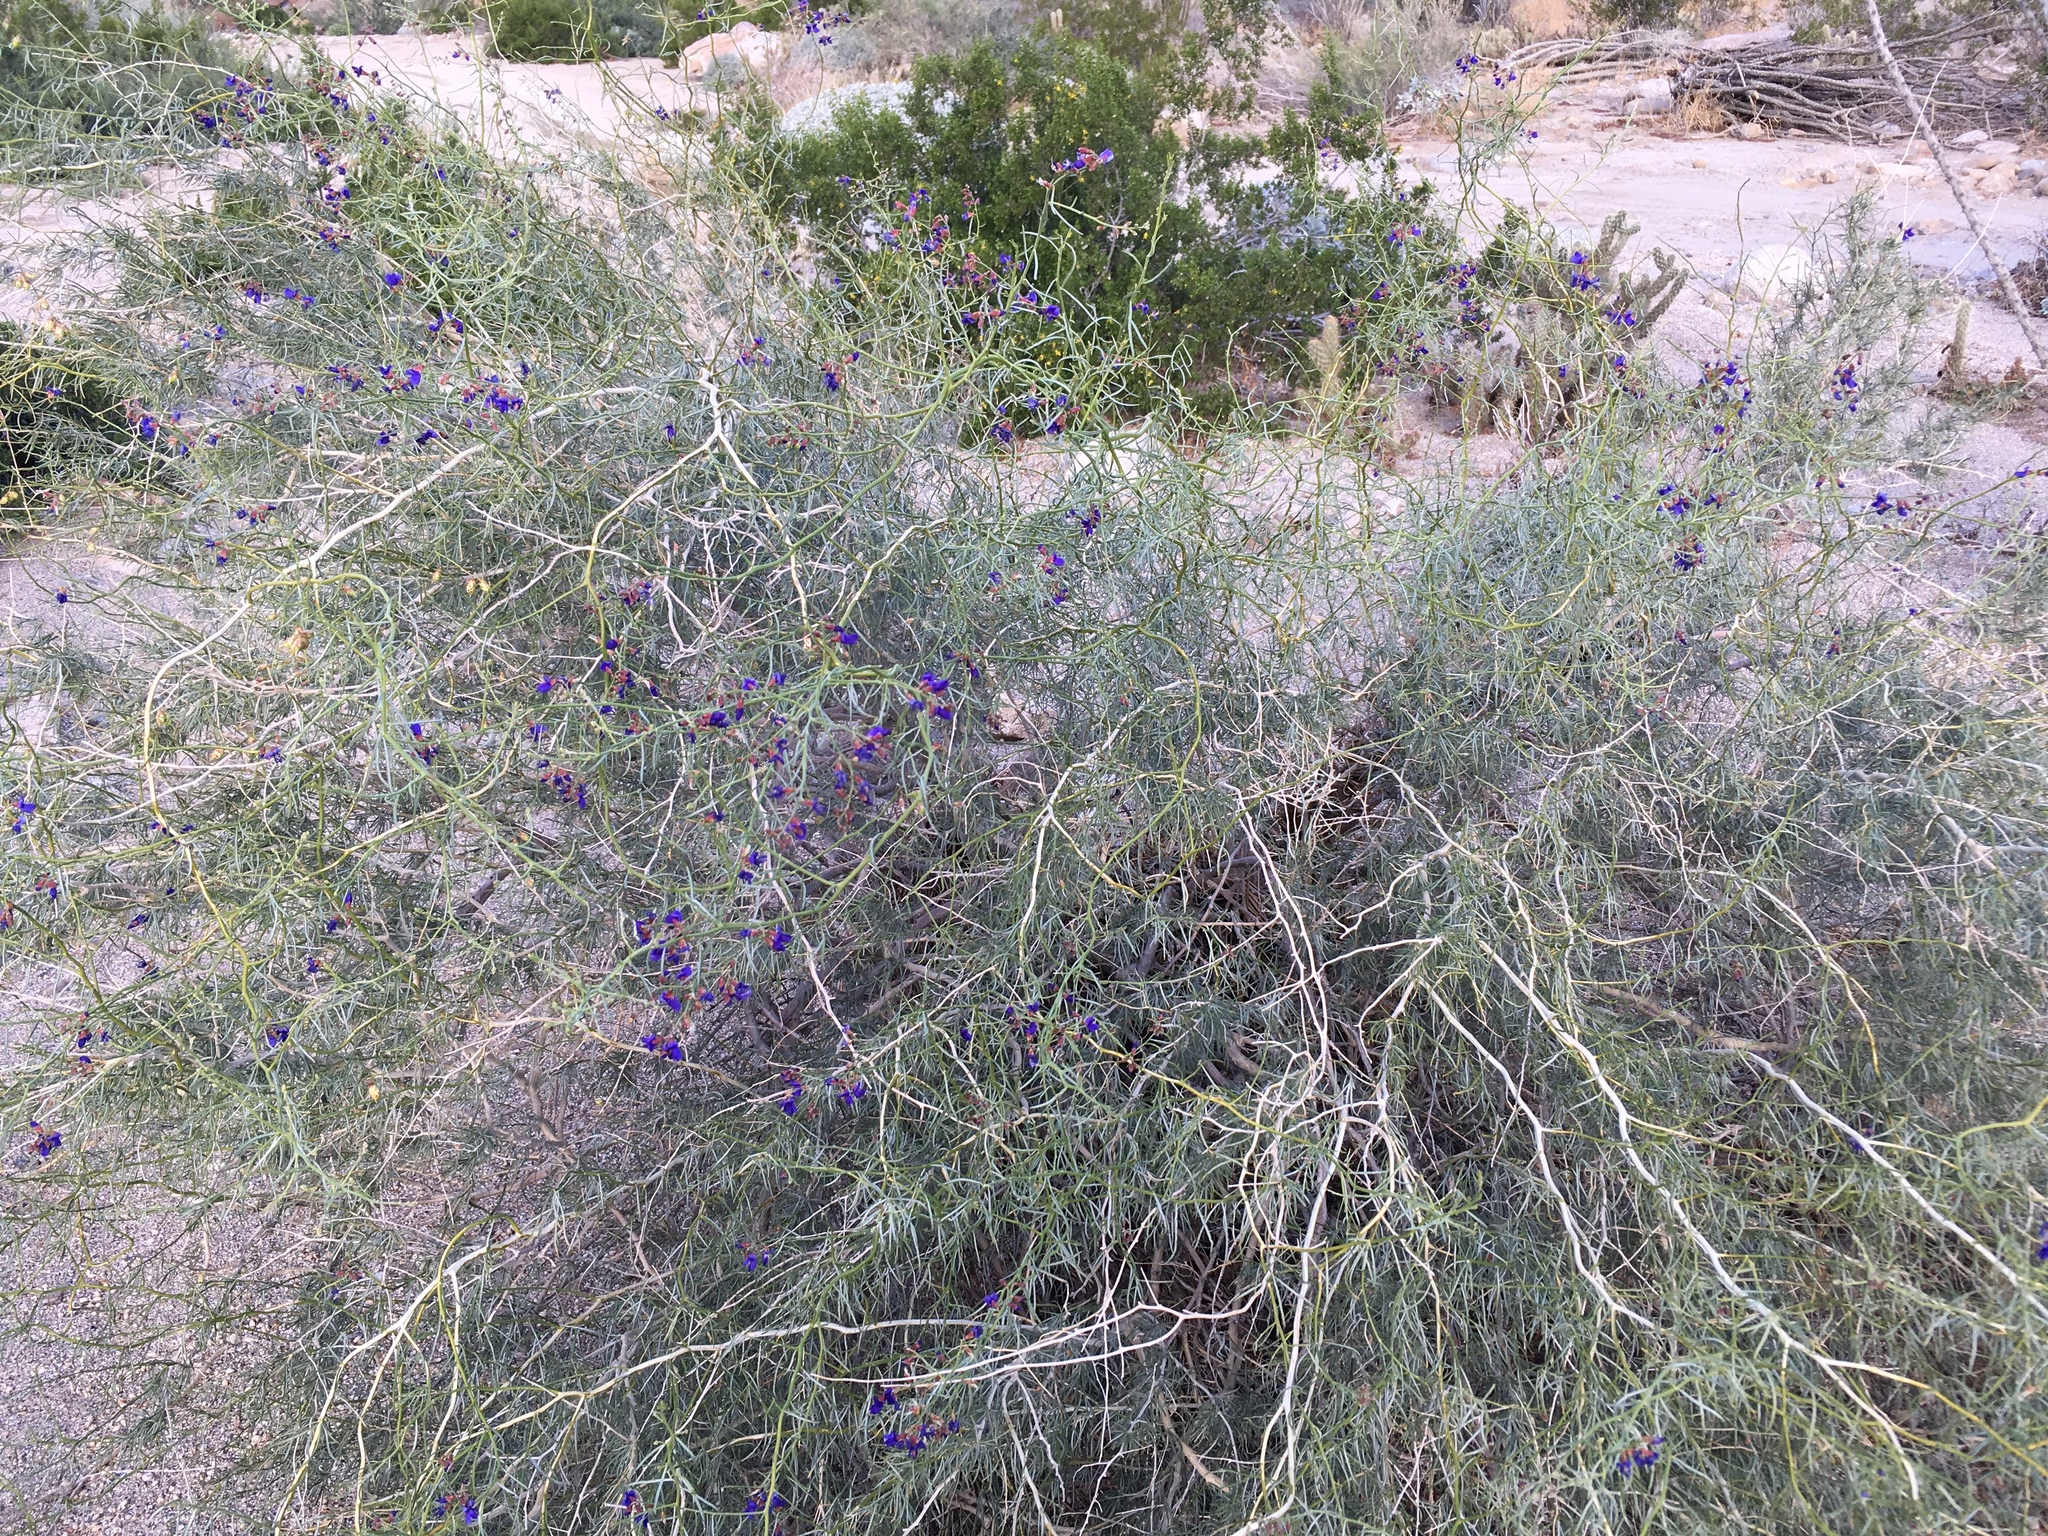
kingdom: Plantae
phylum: Tracheophyta
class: Magnoliopsida
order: Fabales
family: Fabaceae
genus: Psorothamnus
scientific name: Psorothamnus schottii
